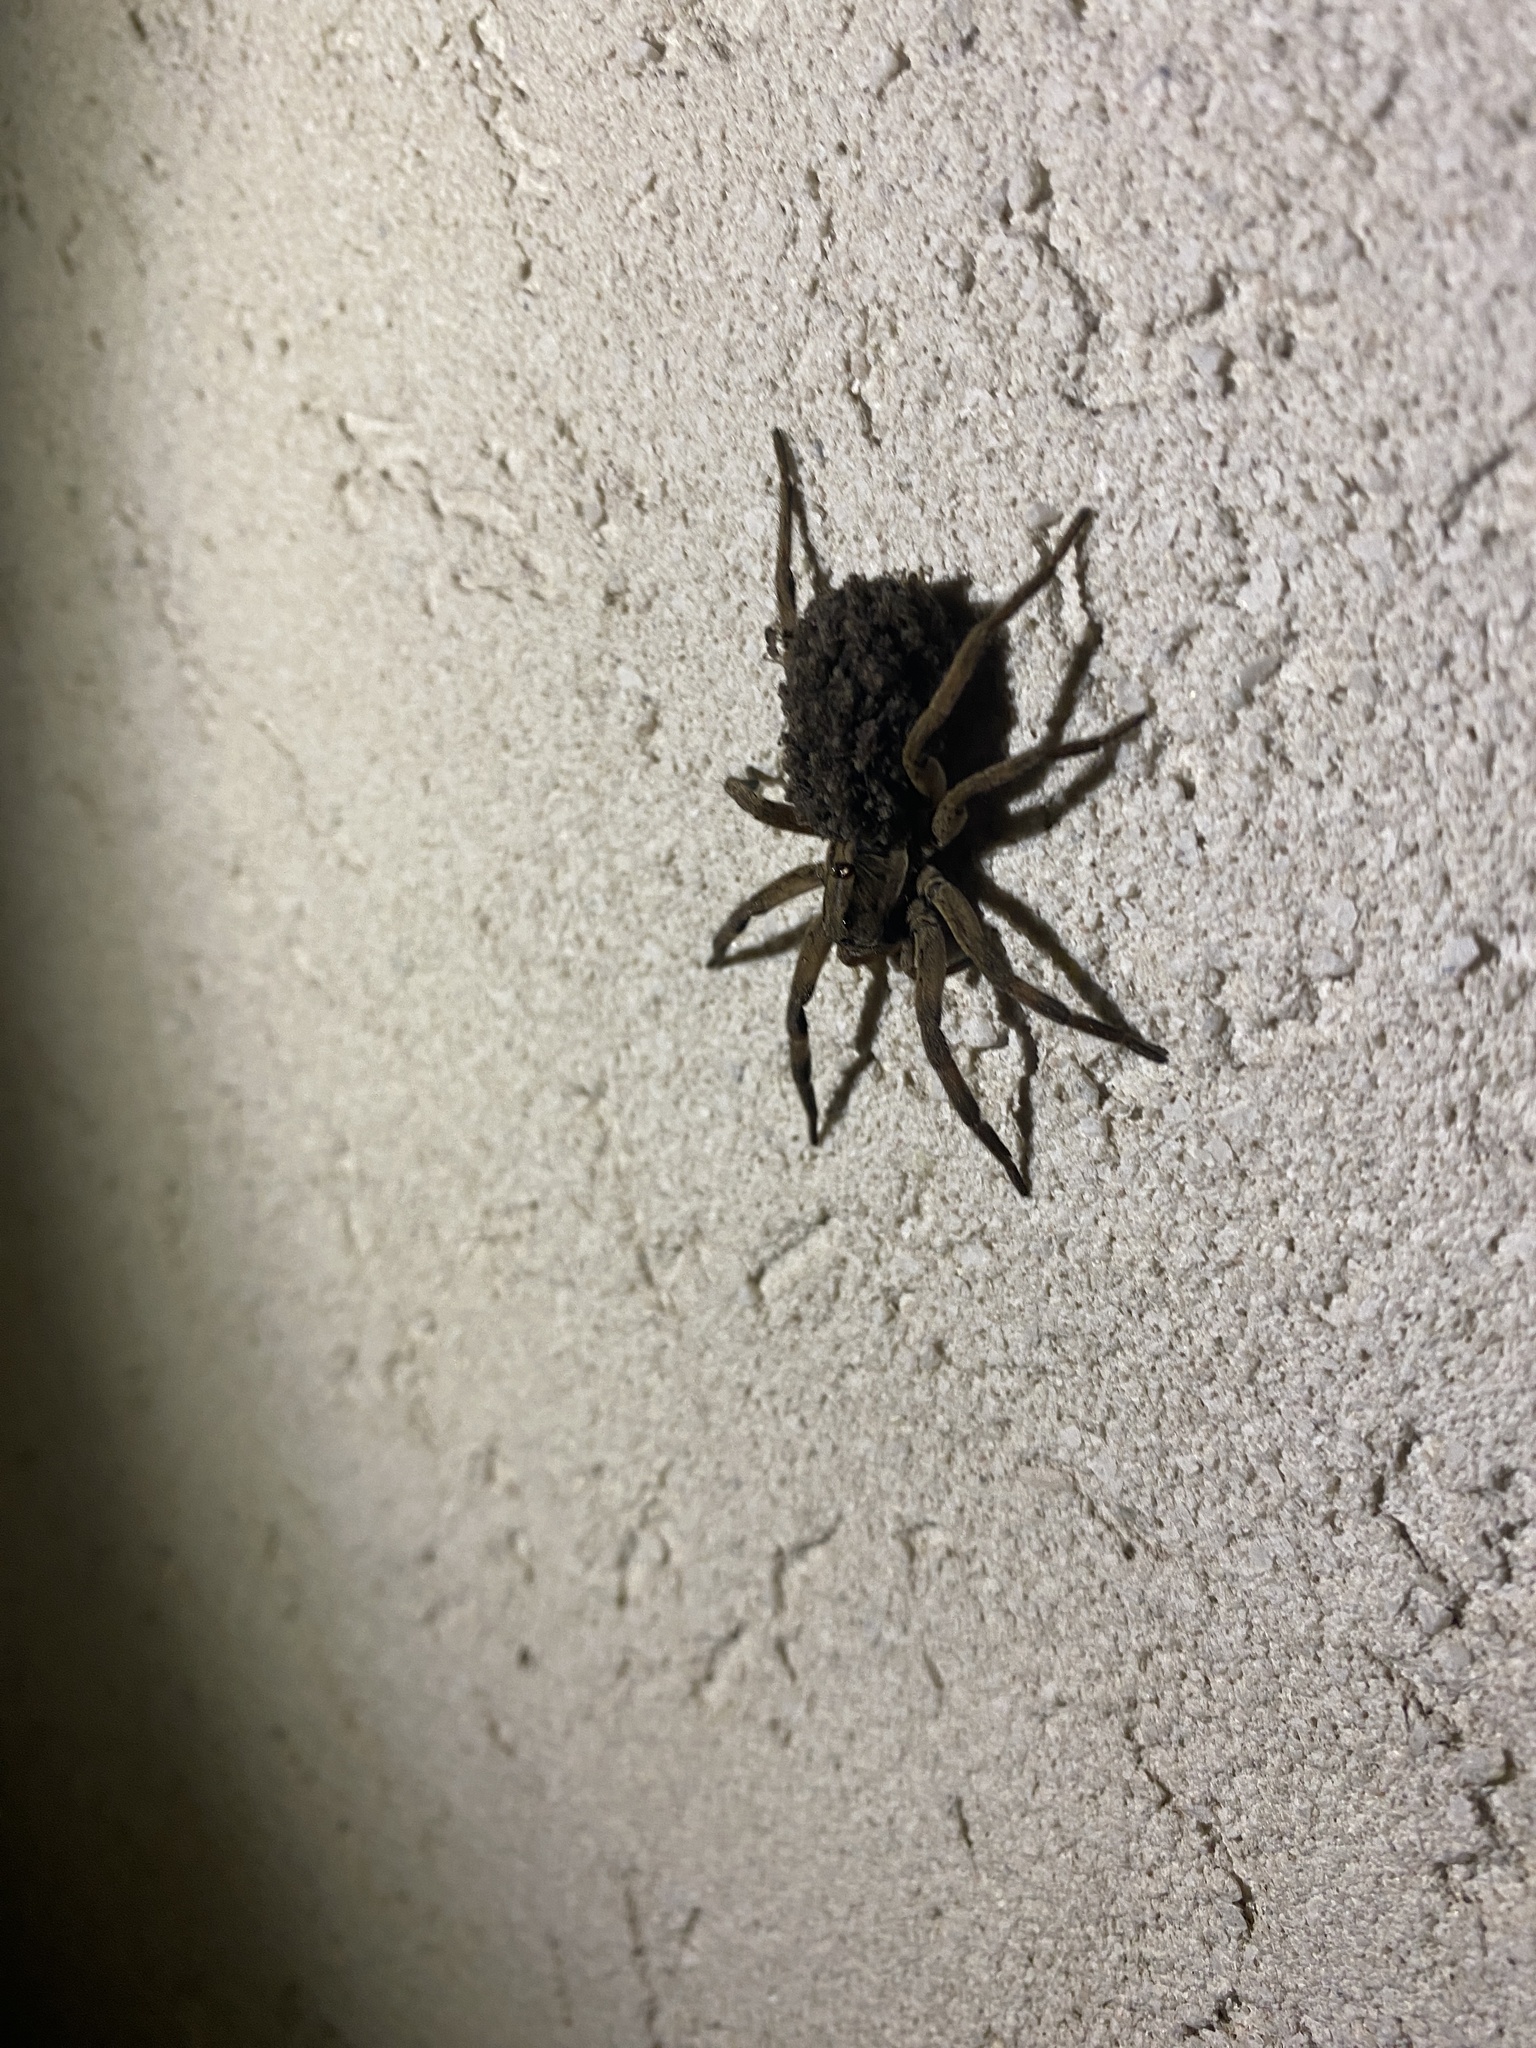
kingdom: Animalia
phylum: Arthropoda
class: Arachnida
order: Araneae
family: Lycosidae
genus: Lycosa
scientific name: Lycosa erythrognatha
